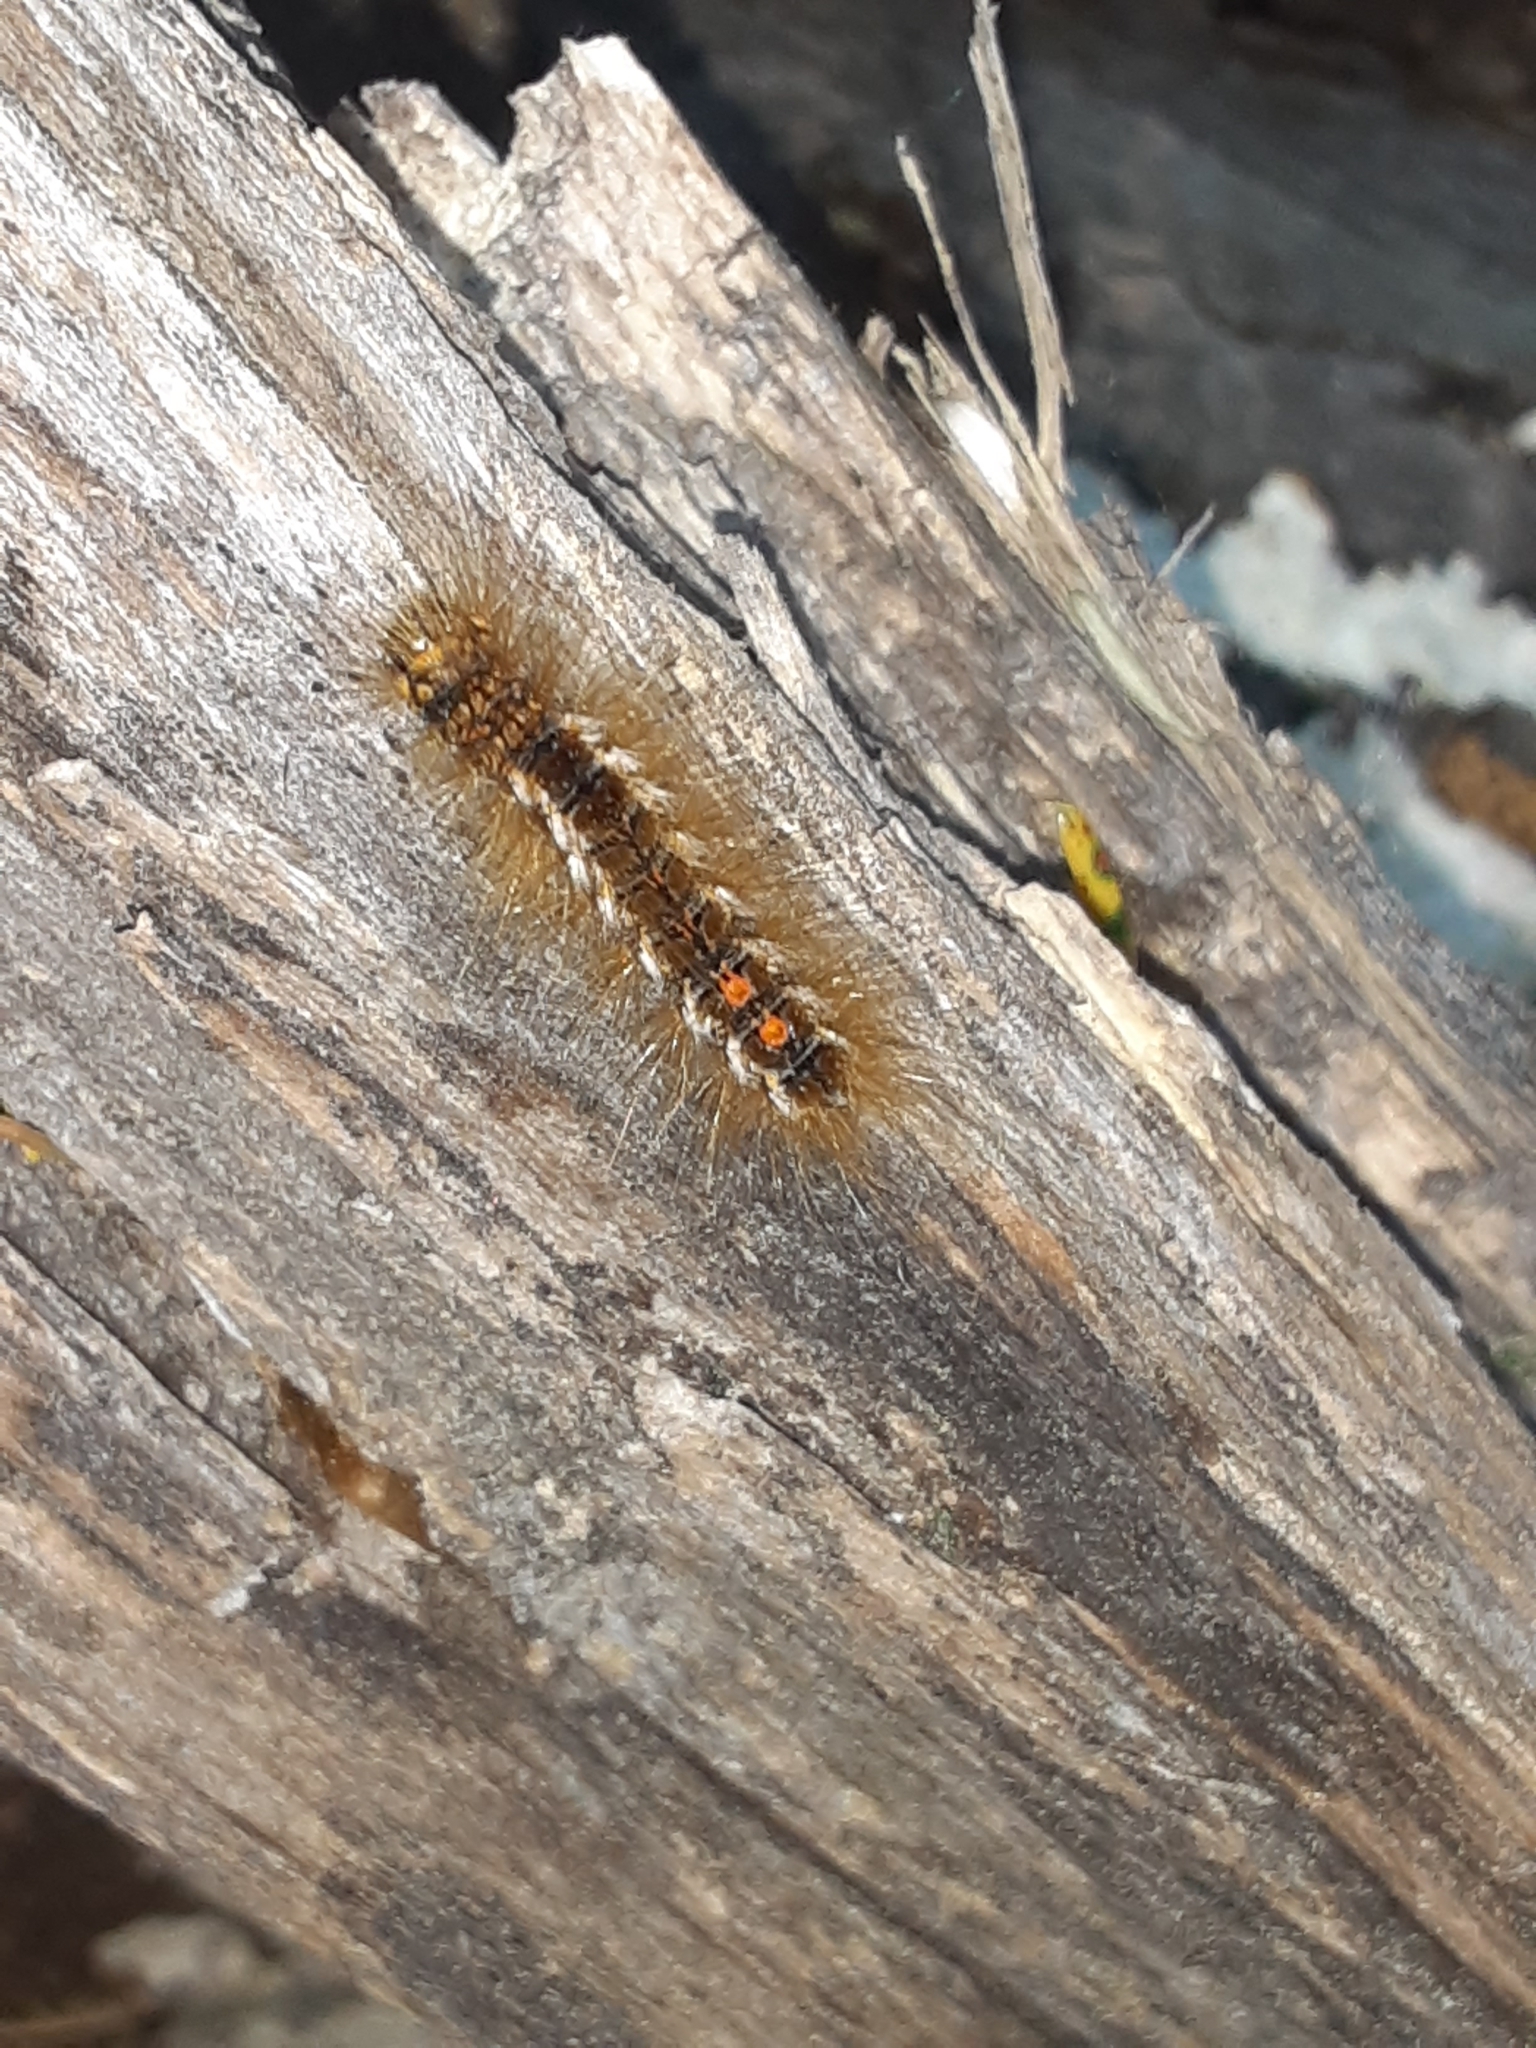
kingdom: Animalia
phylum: Arthropoda
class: Insecta
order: Lepidoptera
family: Erebidae
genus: Euproctis
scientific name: Euproctis chrysorrhoea
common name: Brown-tail
